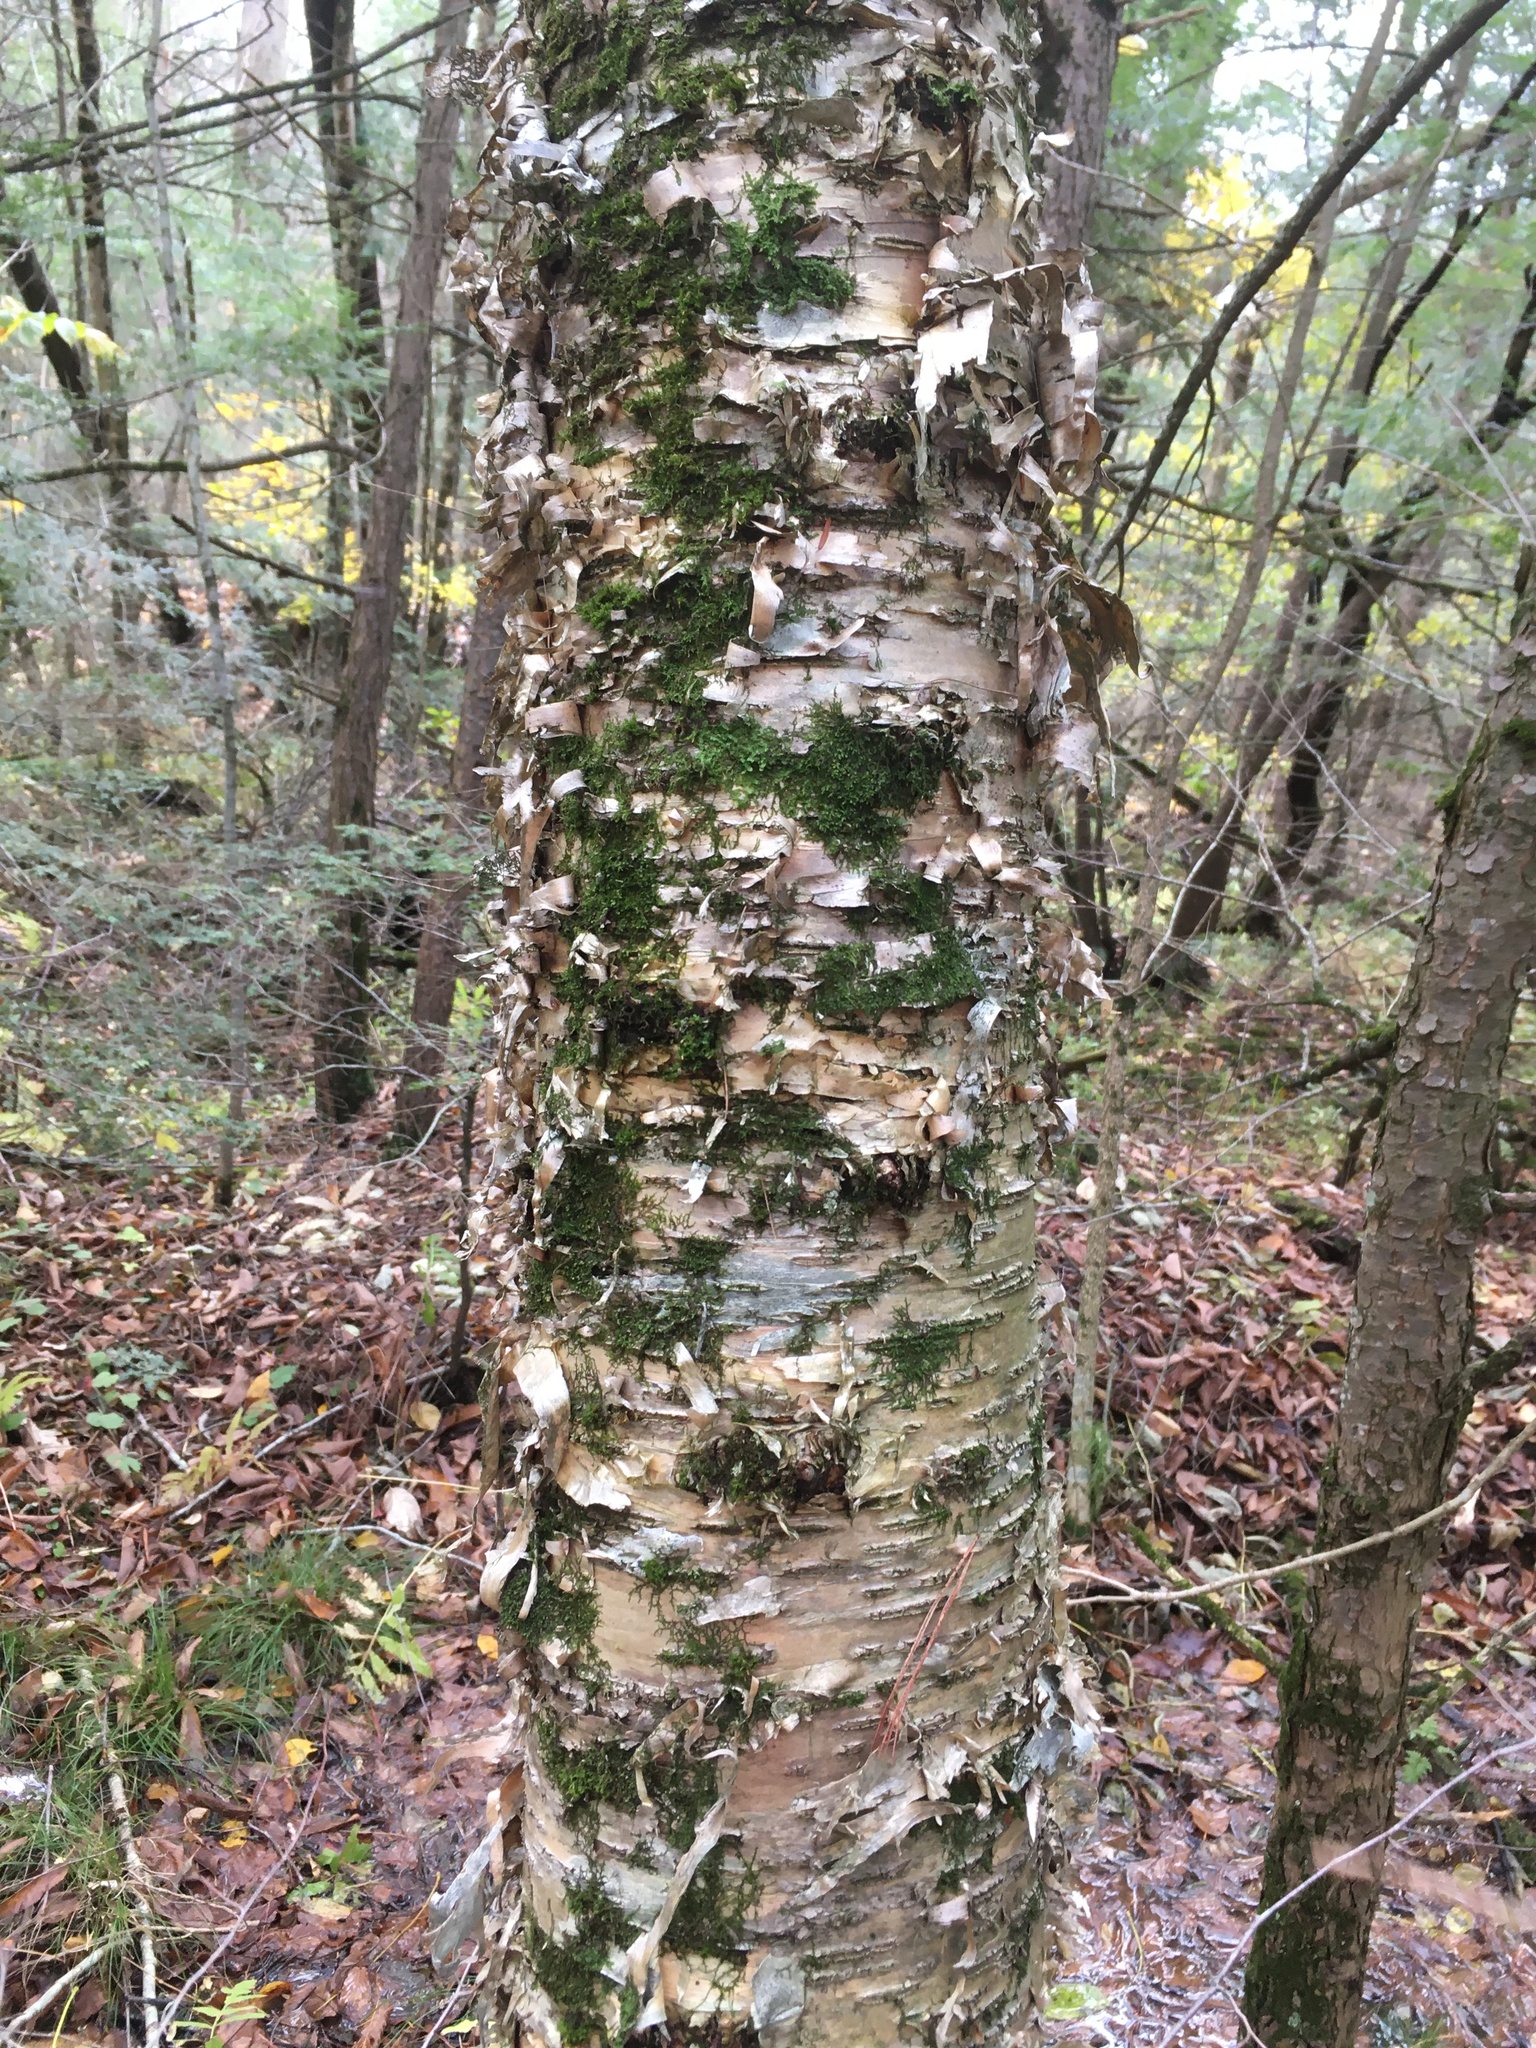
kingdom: Plantae
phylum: Tracheophyta
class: Magnoliopsida
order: Fagales
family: Betulaceae
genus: Betula
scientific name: Betula alleghaniensis
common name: Yellow birch
